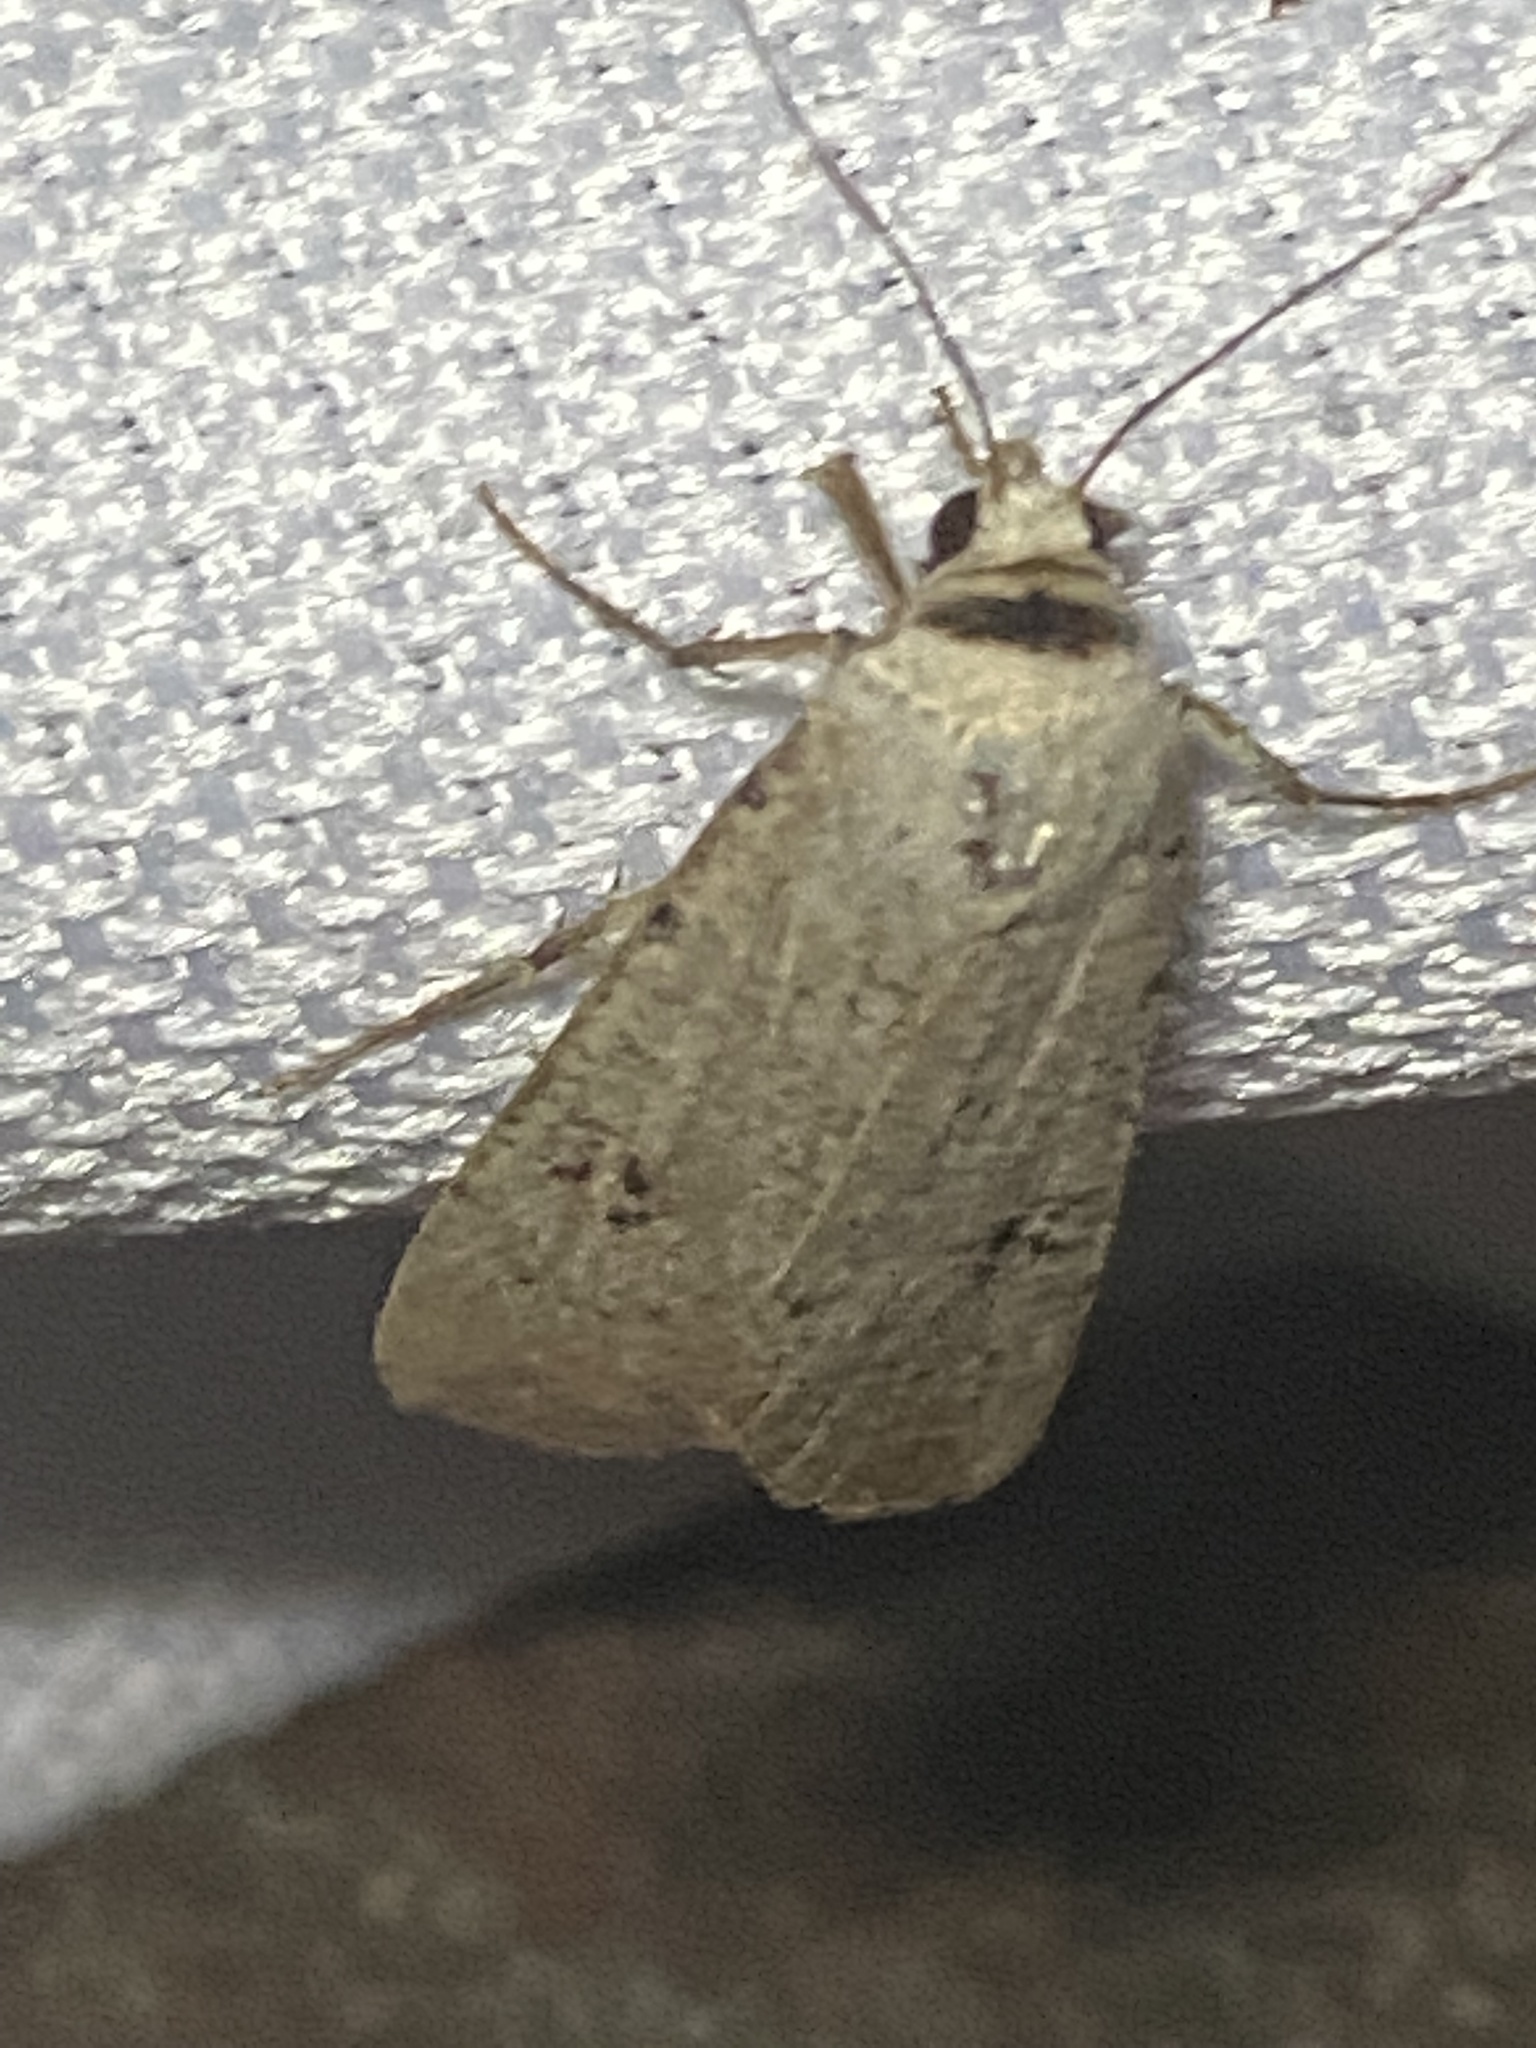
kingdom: Animalia
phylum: Arthropoda
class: Insecta
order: Lepidoptera
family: Noctuidae
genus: Anicla
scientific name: Anicla infecta
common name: Green cutworm
